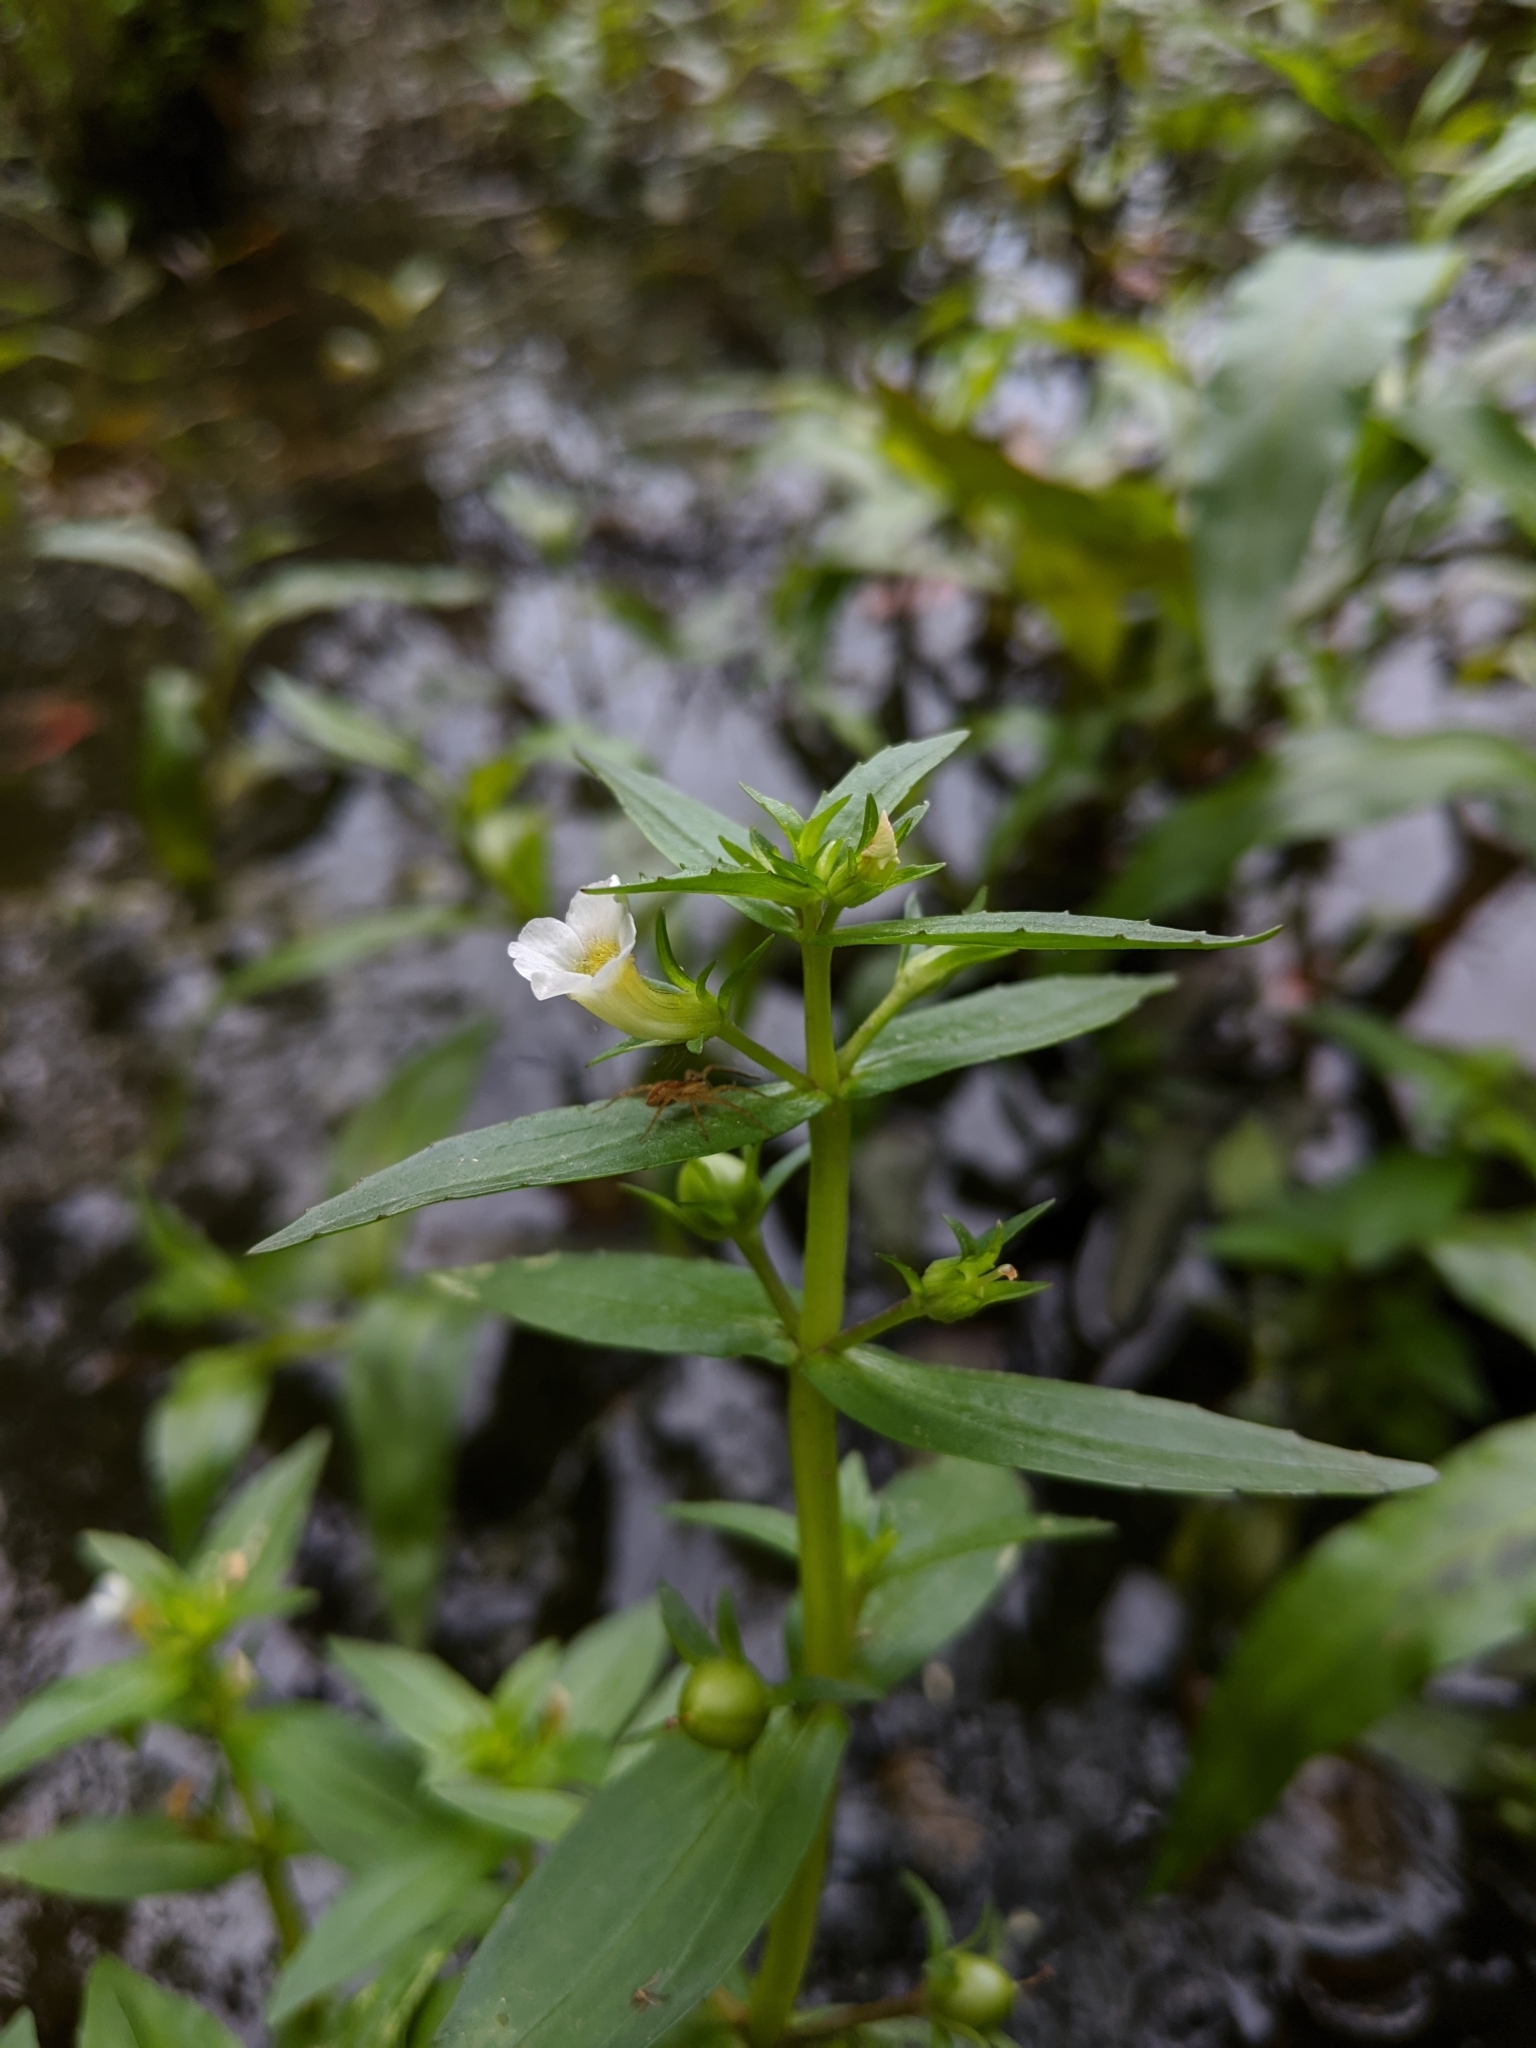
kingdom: Plantae
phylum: Tracheophyta
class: Magnoliopsida
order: Lamiales
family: Plantaginaceae
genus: Gratiola
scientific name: Gratiola virginiana
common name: Roundfruit hedgehyssop
